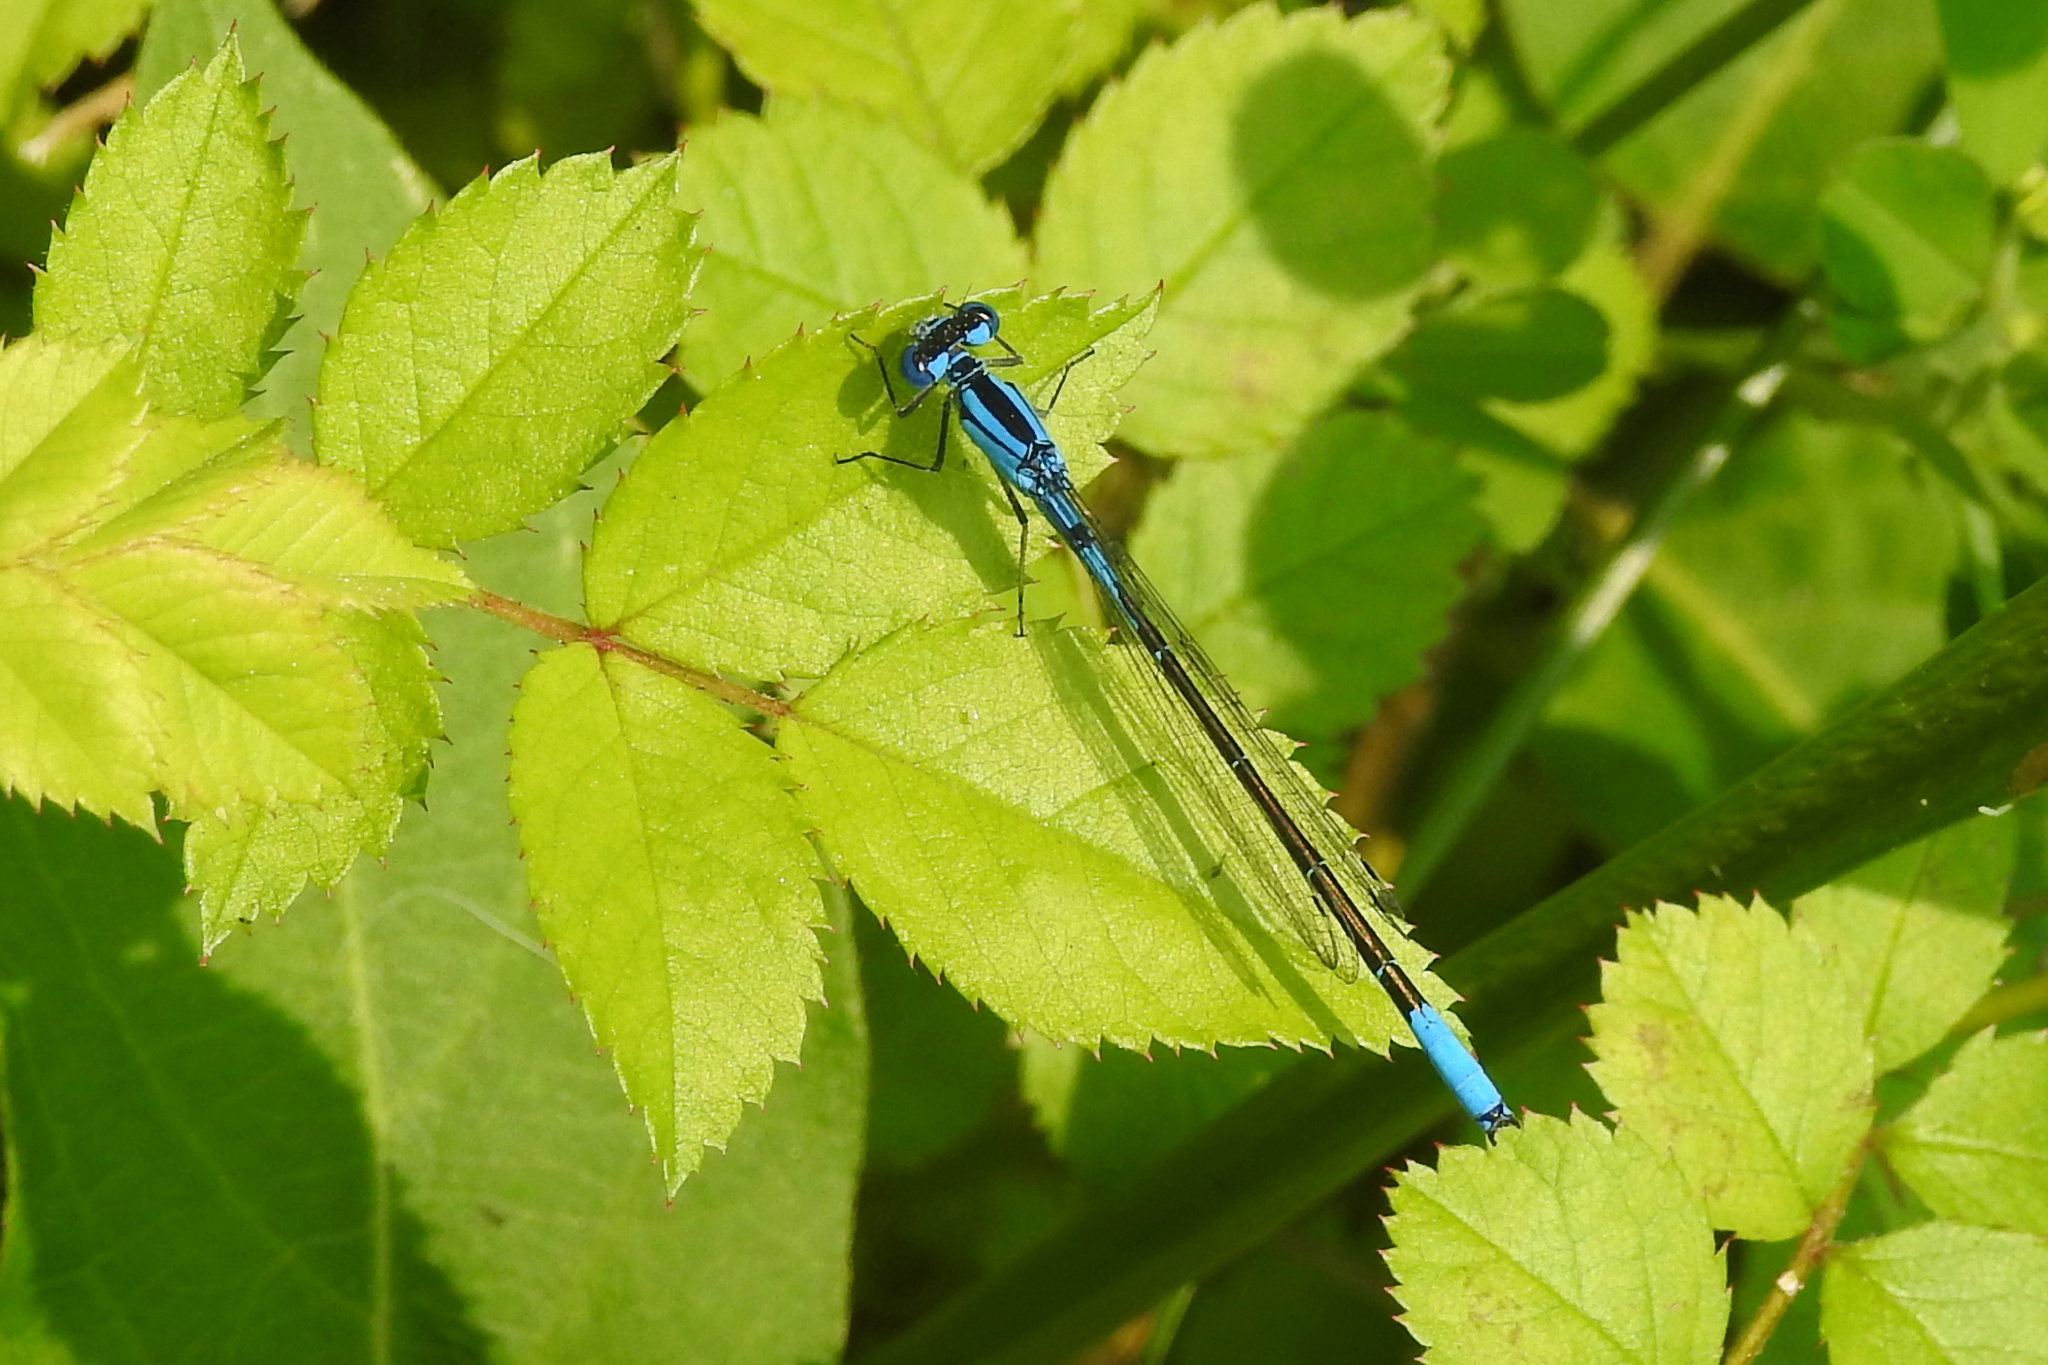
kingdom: Animalia
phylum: Arthropoda
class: Insecta
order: Odonata
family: Coenagrionidae
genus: Enallagma
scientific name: Enallagma aspersum
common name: Azure bluet
